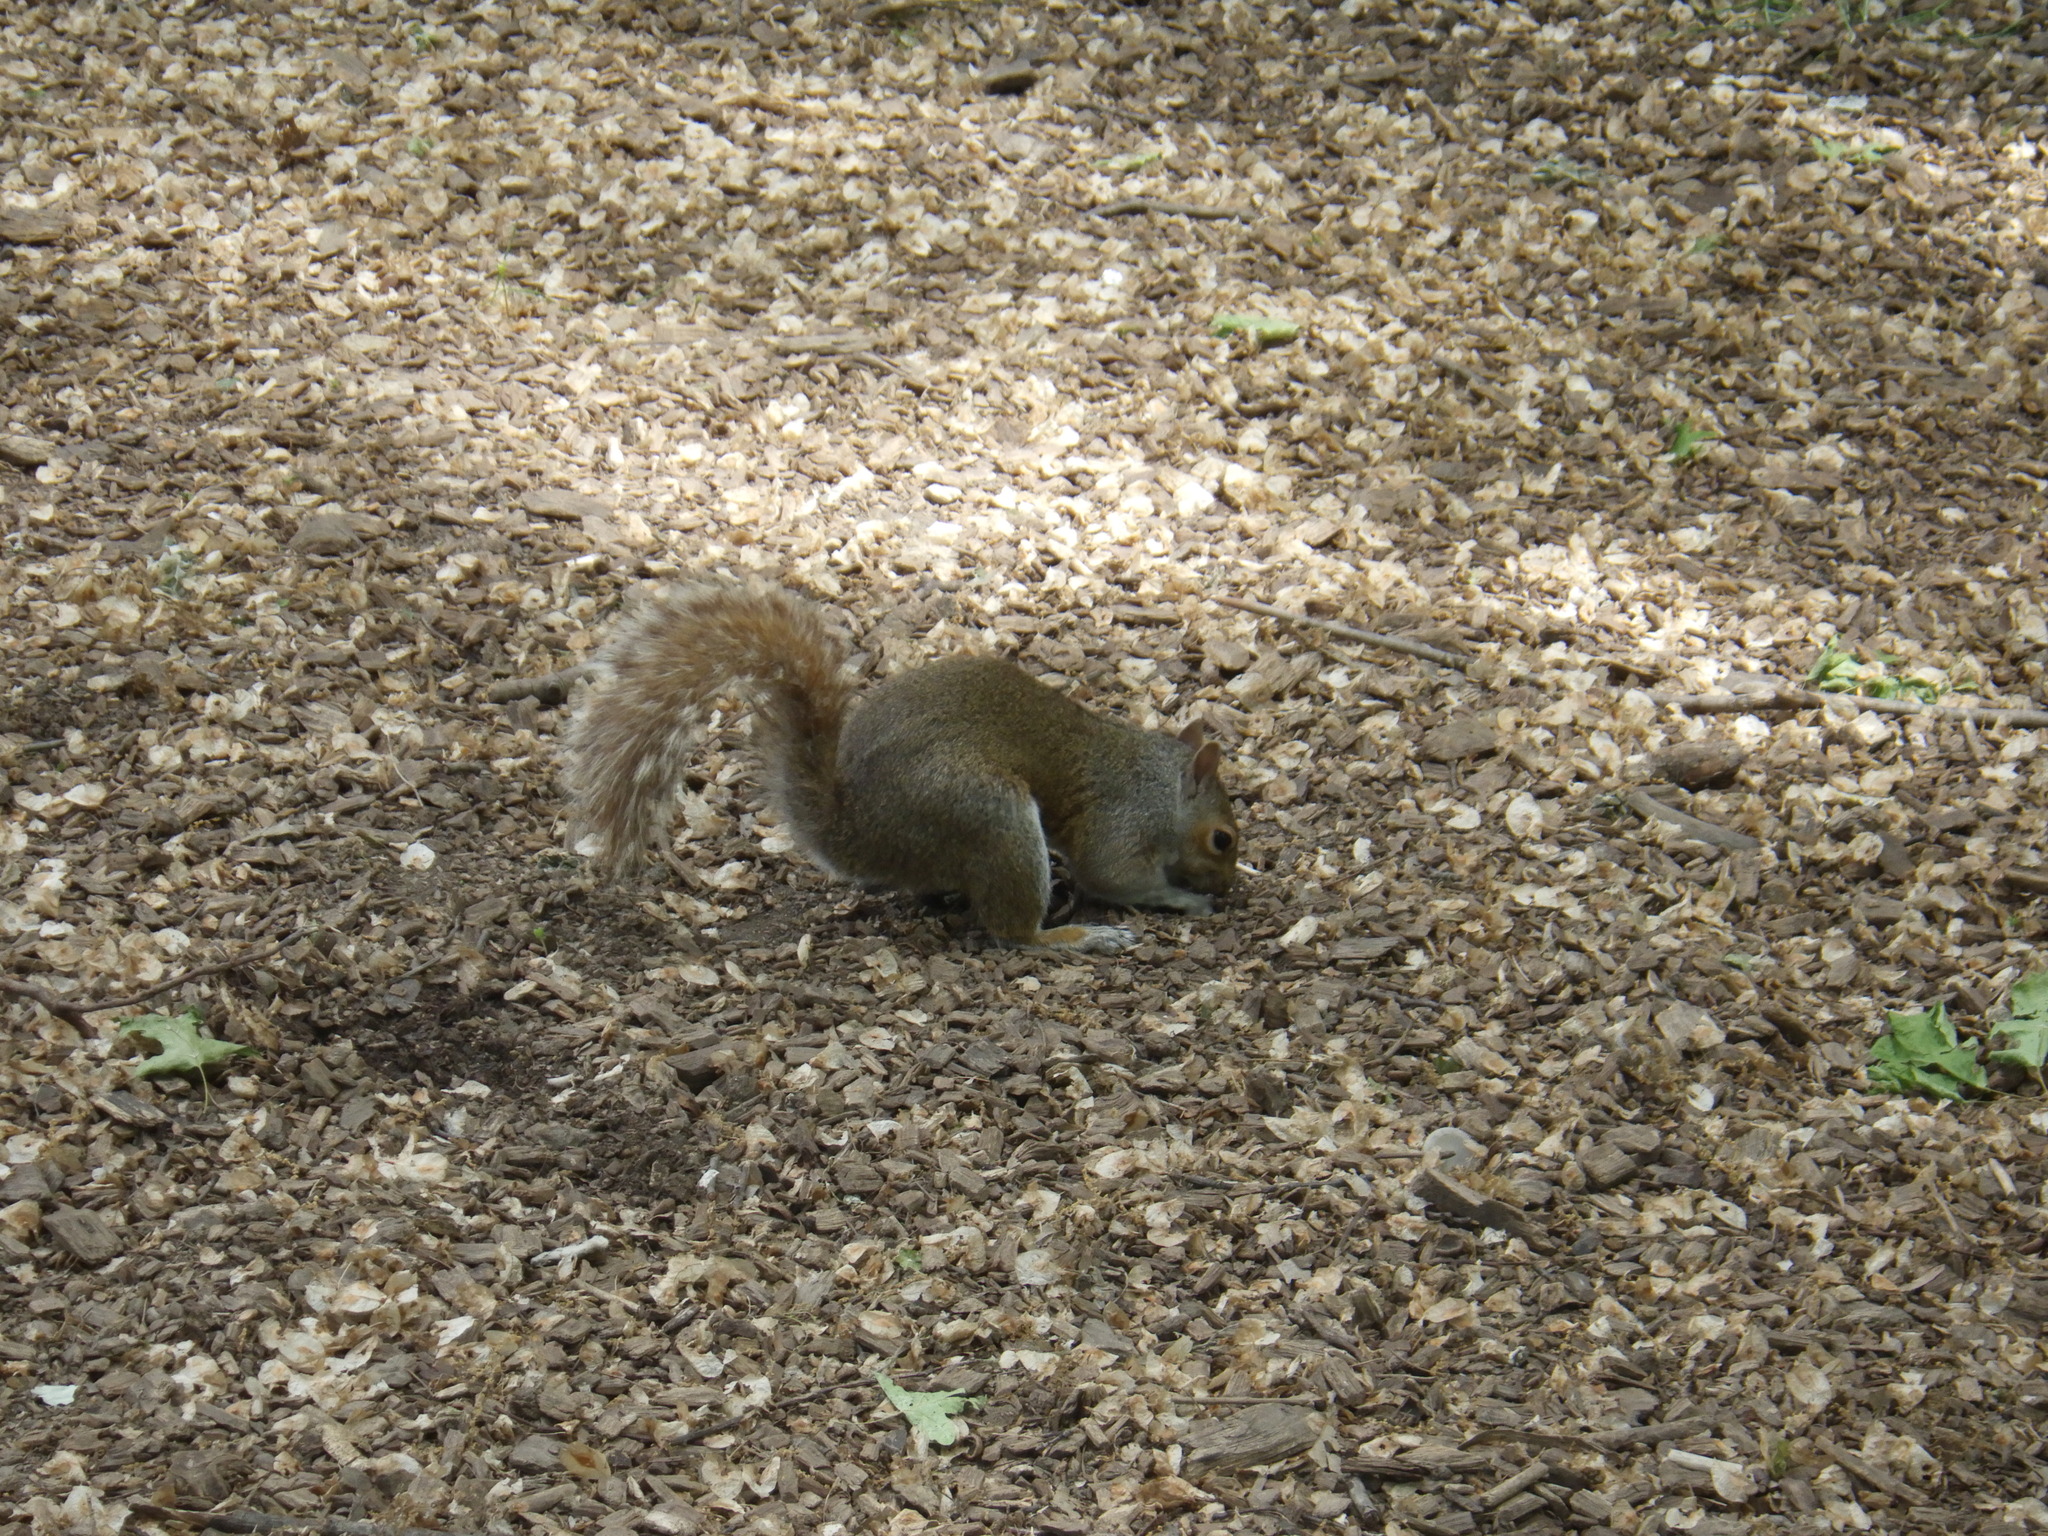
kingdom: Animalia
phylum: Chordata
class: Mammalia
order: Rodentia
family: Sciuridae
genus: Sciurus
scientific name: Sciurus carolinensis
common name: Eastern gray squirrel
